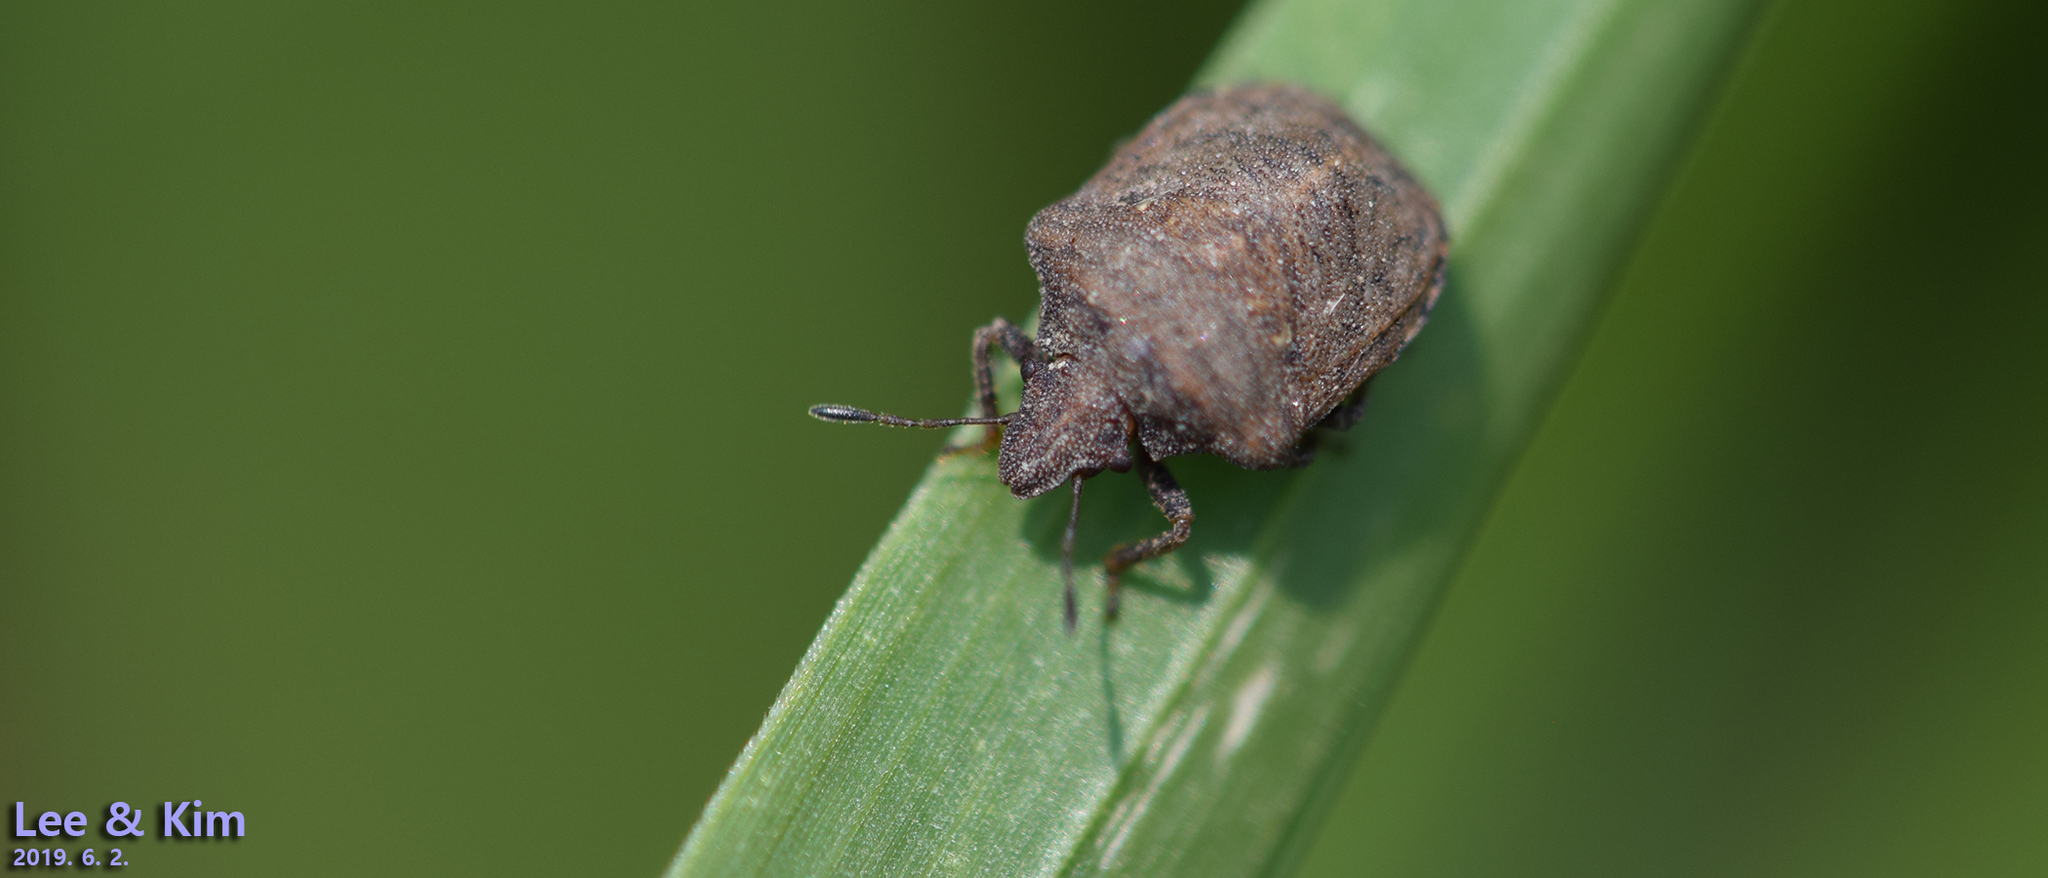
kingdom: Animalia
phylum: Arthropoda
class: Insecta
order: Hemiptera
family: Pentatomidae
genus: Dybowskyia
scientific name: Dybowskyia reticulata
